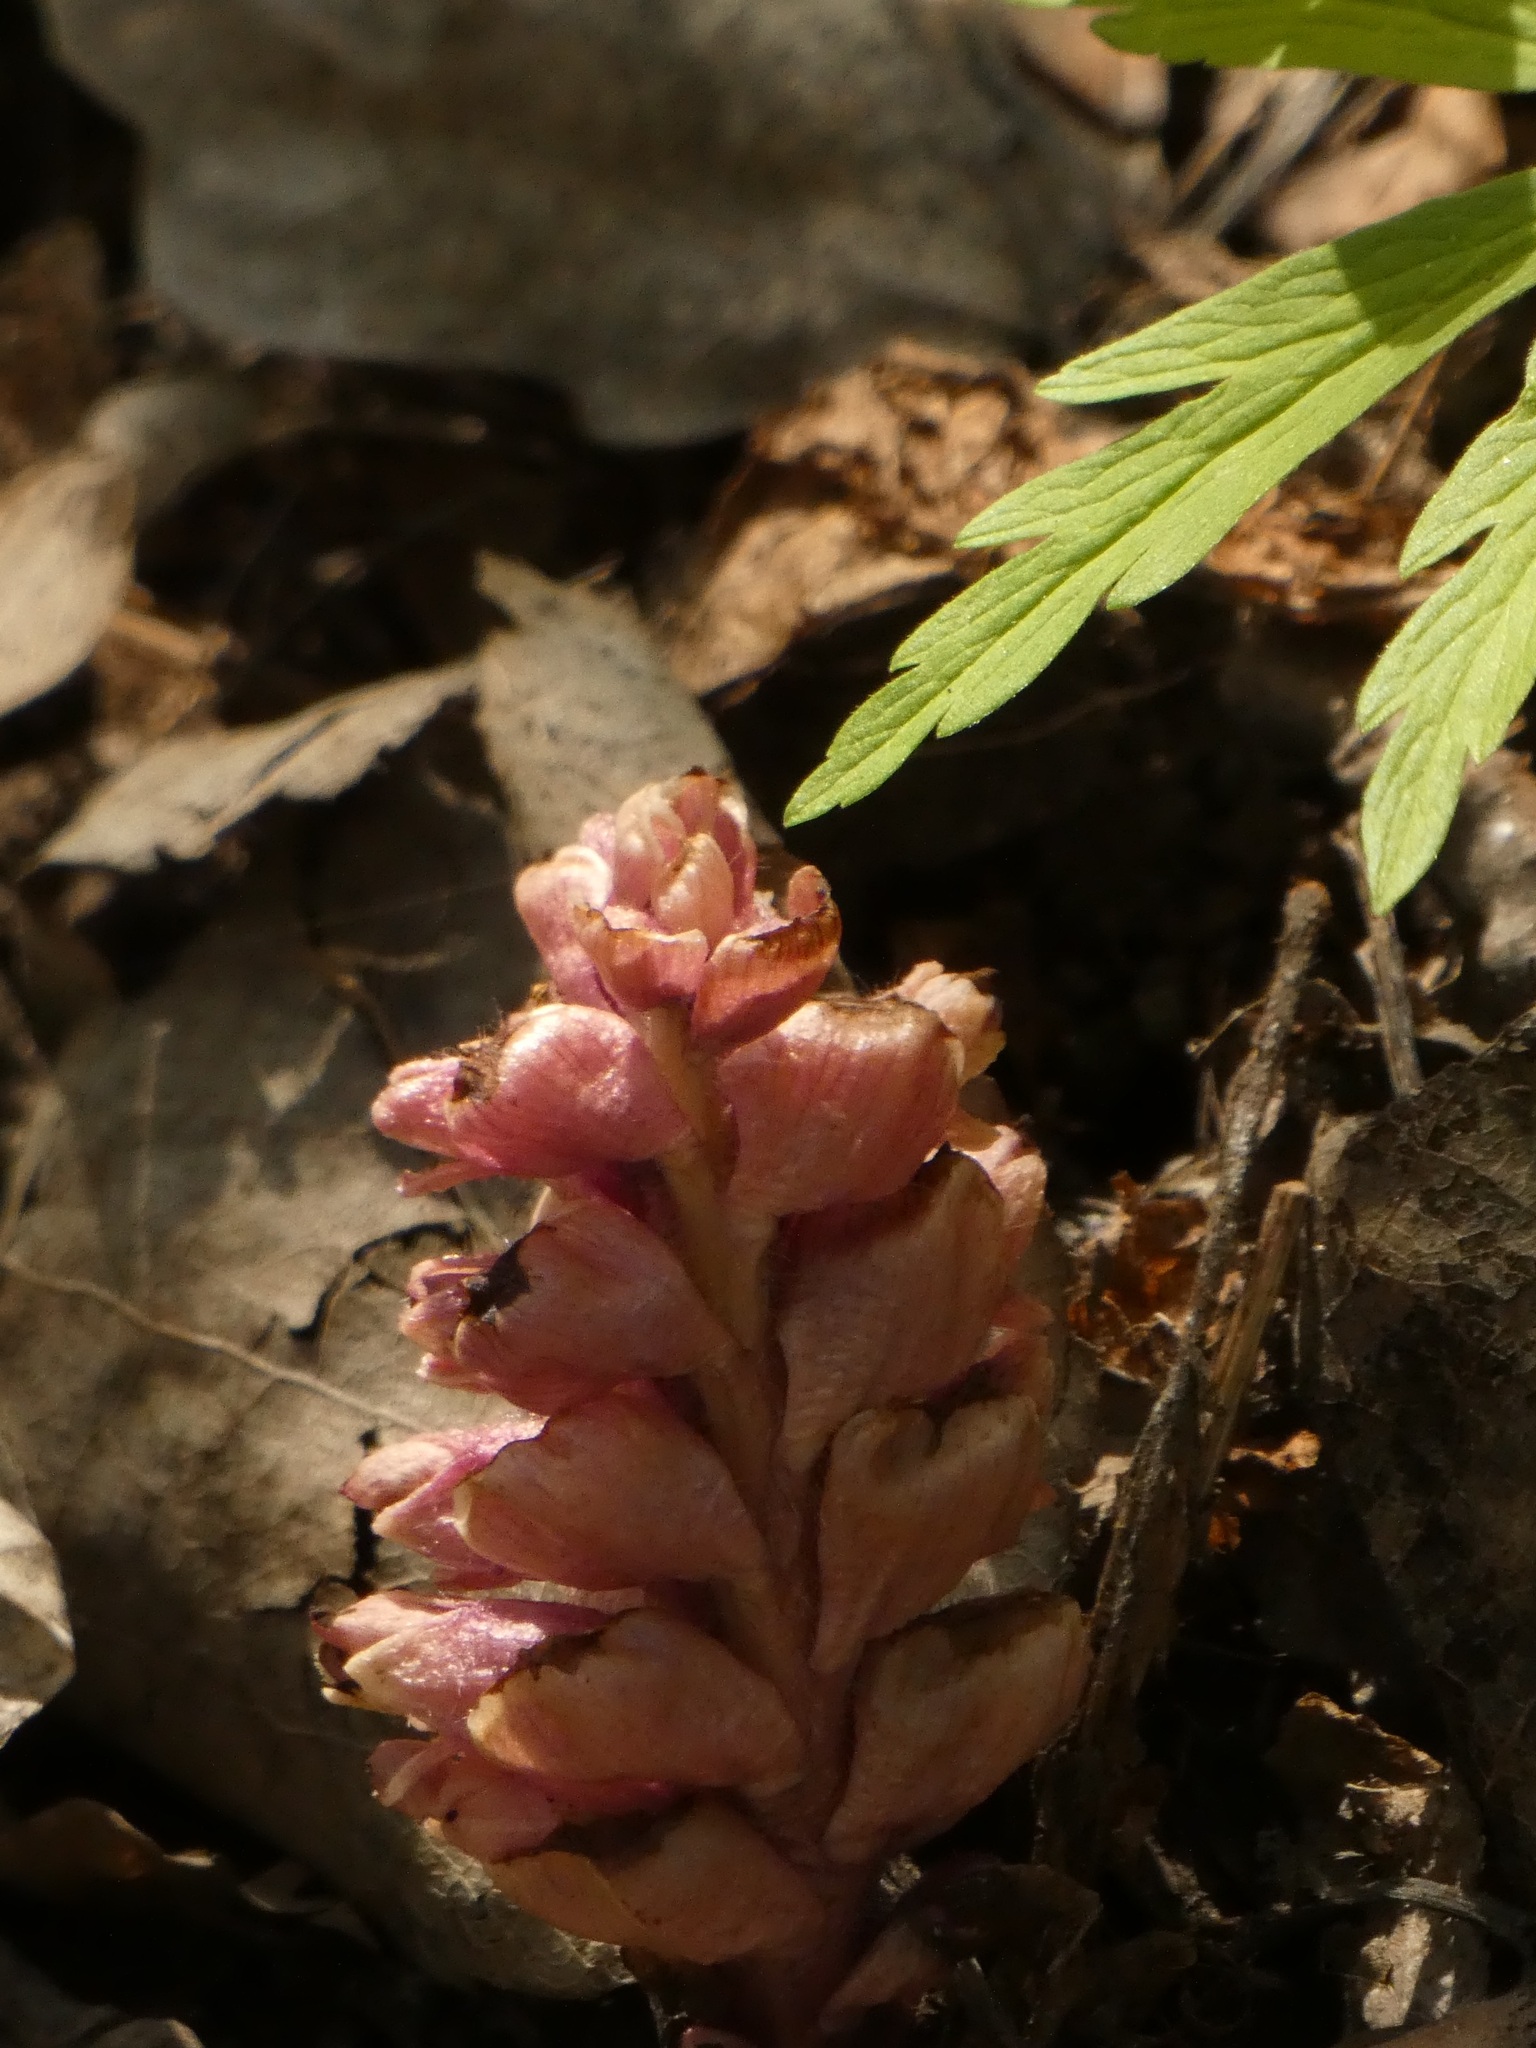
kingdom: Plantae
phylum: Tracheophyta
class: Magnoliopsida
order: Lamiales
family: Orobanchaceae
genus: Lathraea
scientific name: Lathraea squamaria
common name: Toothwort
